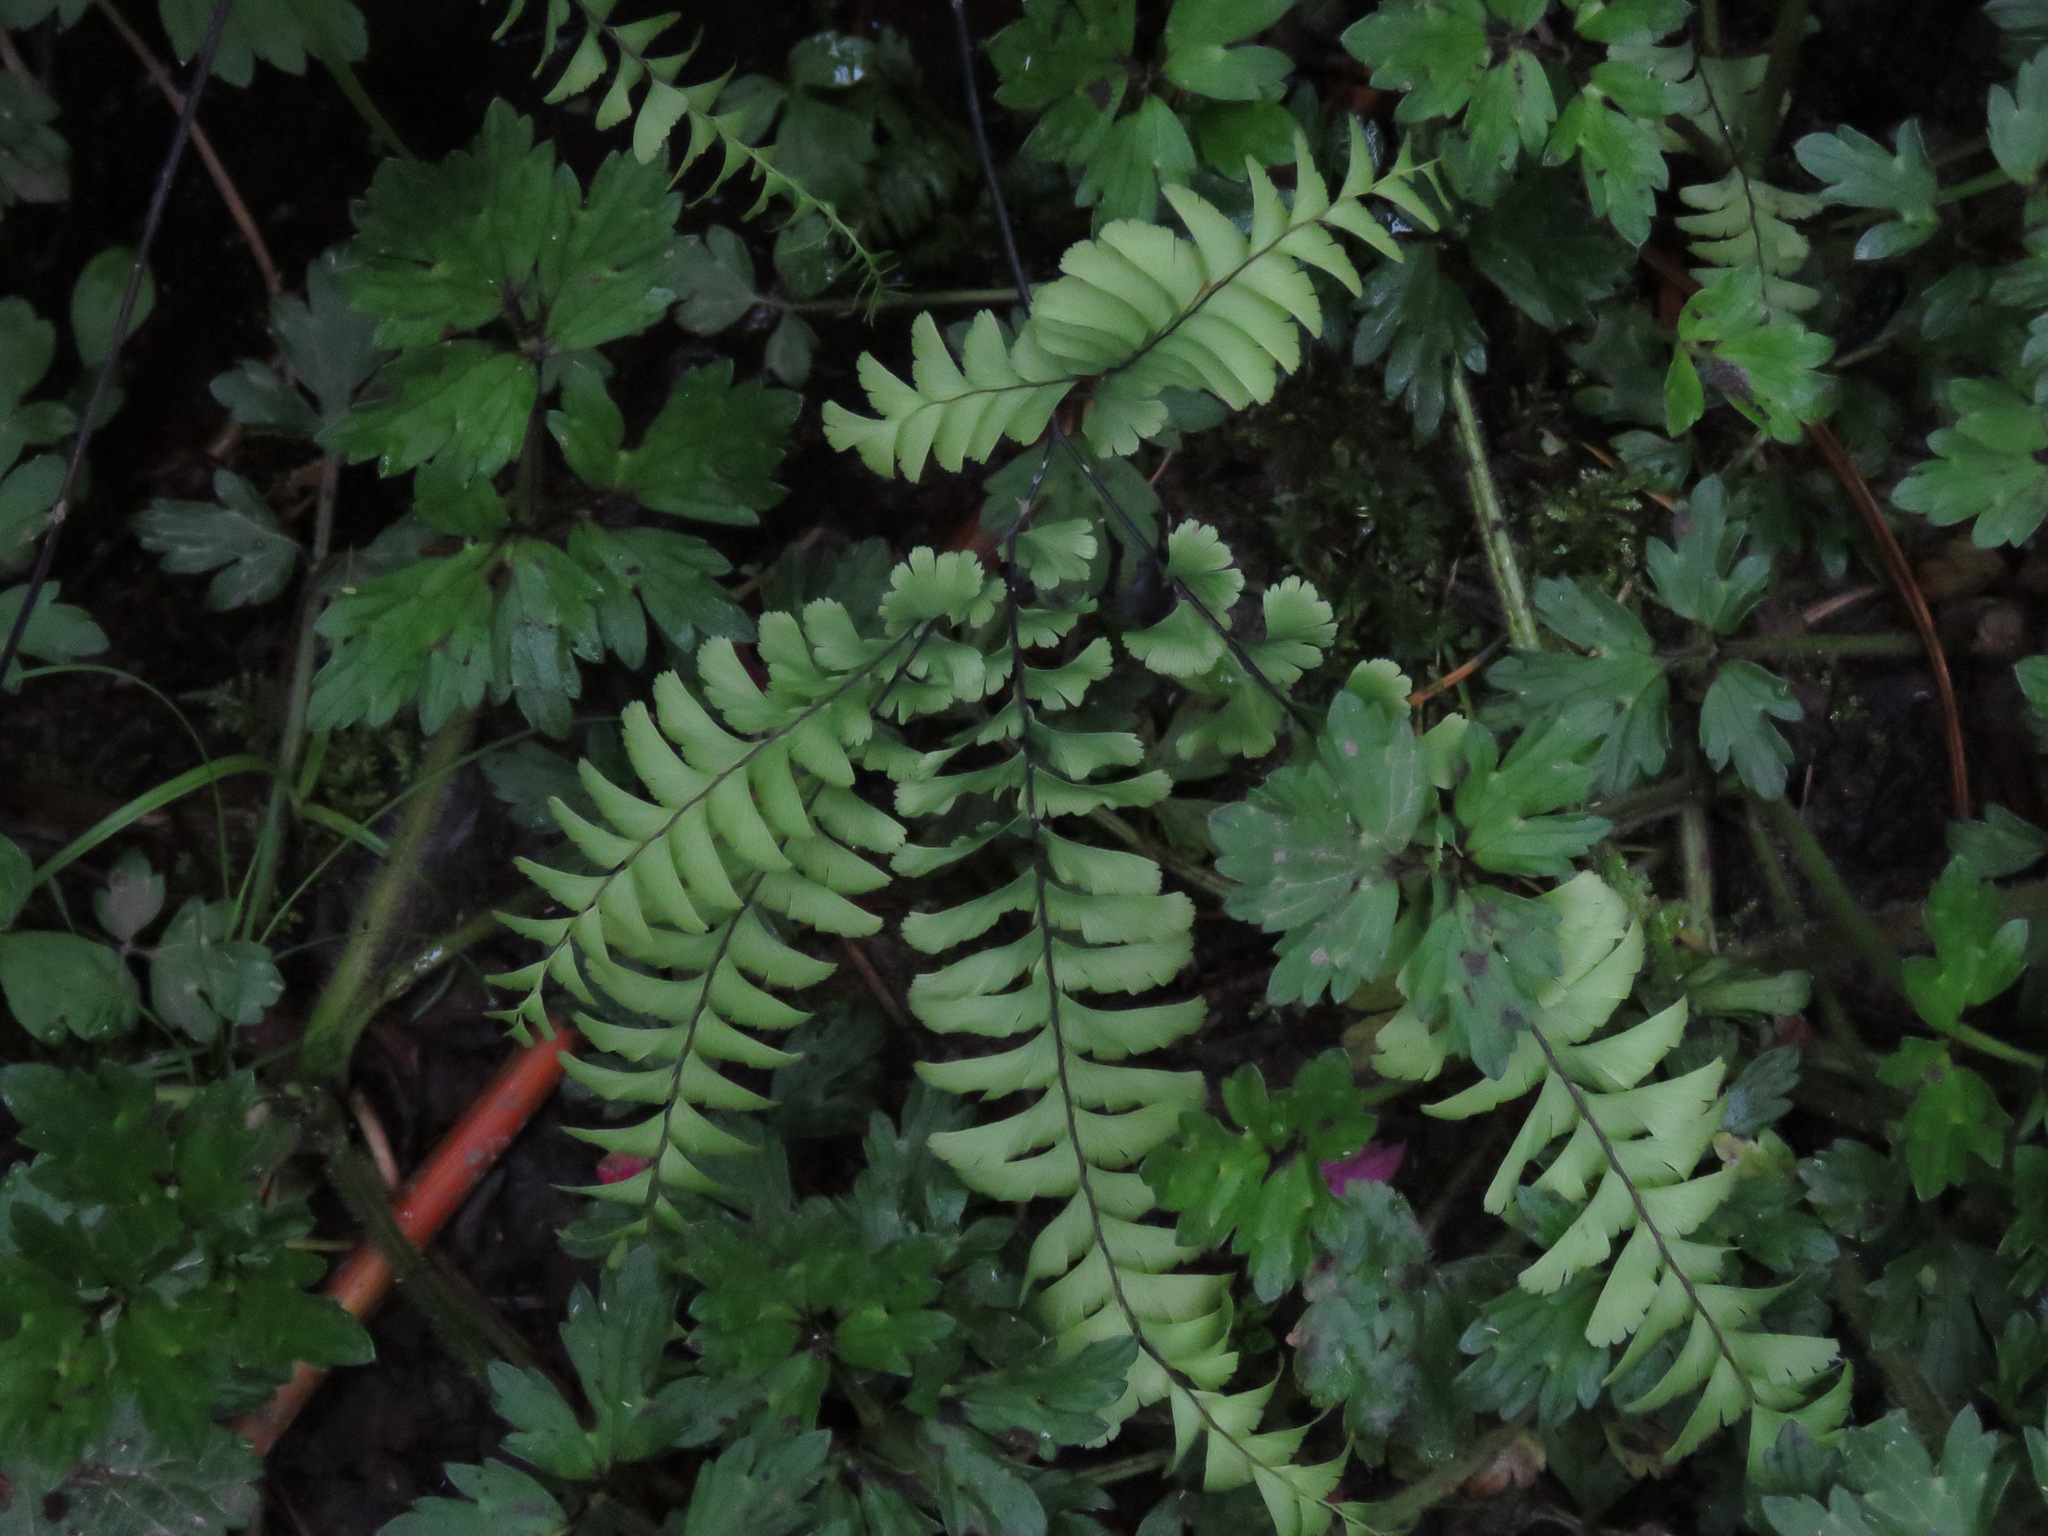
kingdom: Plantae
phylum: Tracheophyta
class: Polypodiopsida
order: Polypodiales
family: Pteridaceae
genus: Adiantum
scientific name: Adiantum aleuticum
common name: Aleutian maidenhair fern
